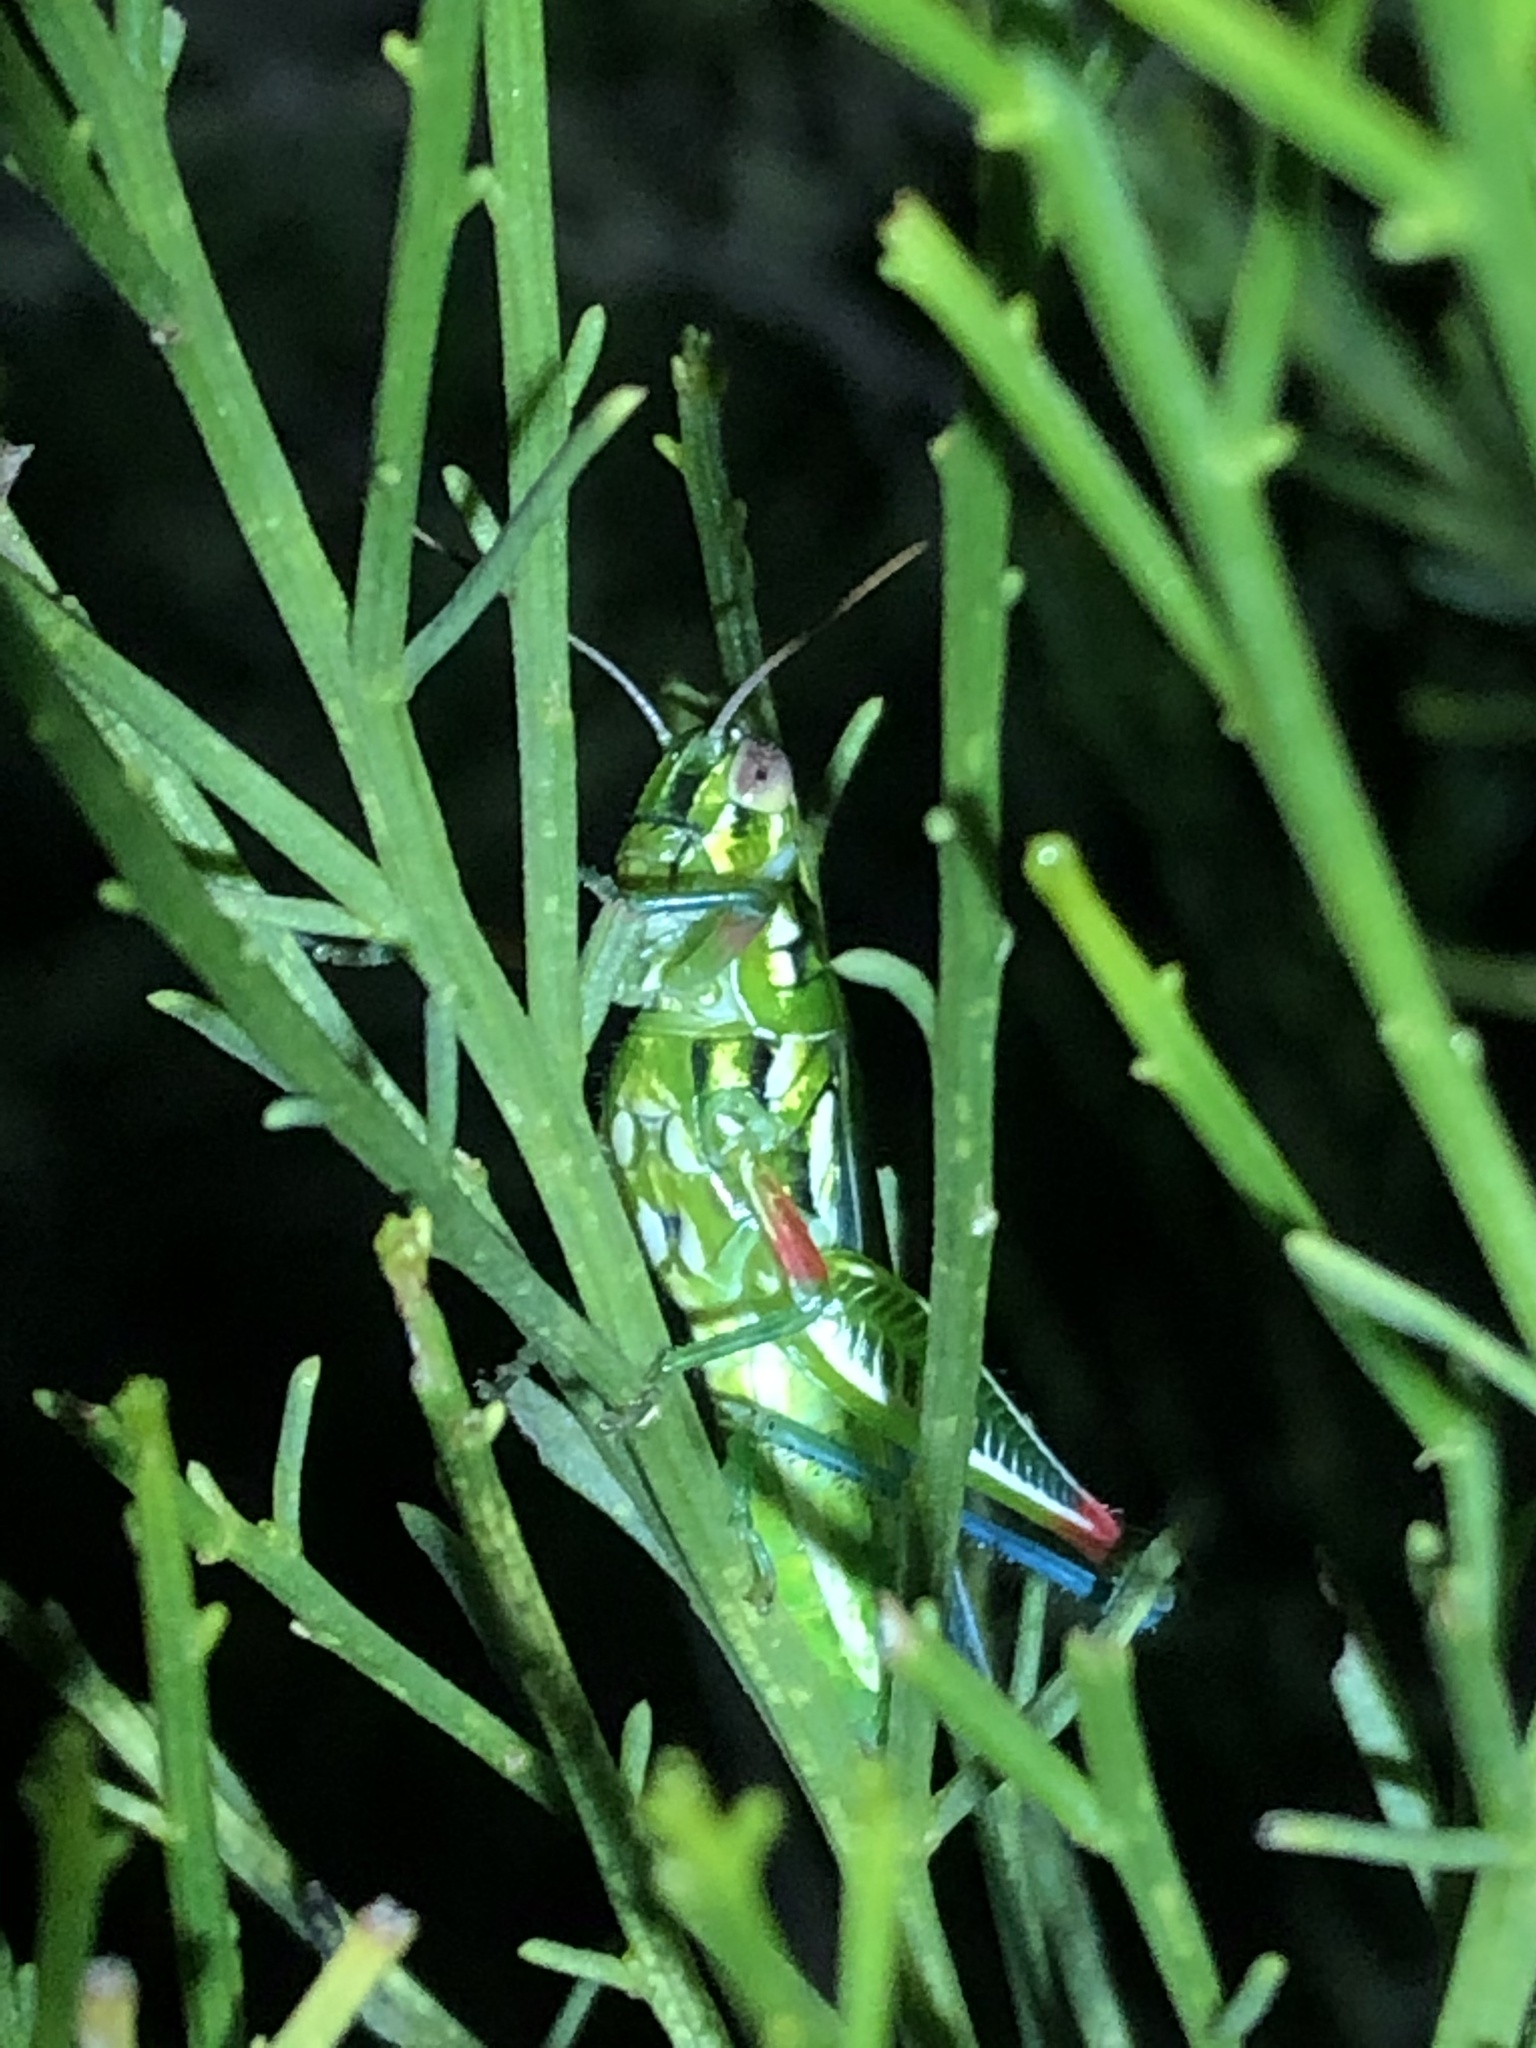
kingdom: Animalia
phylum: Arthropoda
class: Insecta
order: Orthoptera
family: Acrididae
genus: Hesperotettix
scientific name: Hesperotettix viridis
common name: Meadow purple-striped grasshopper
